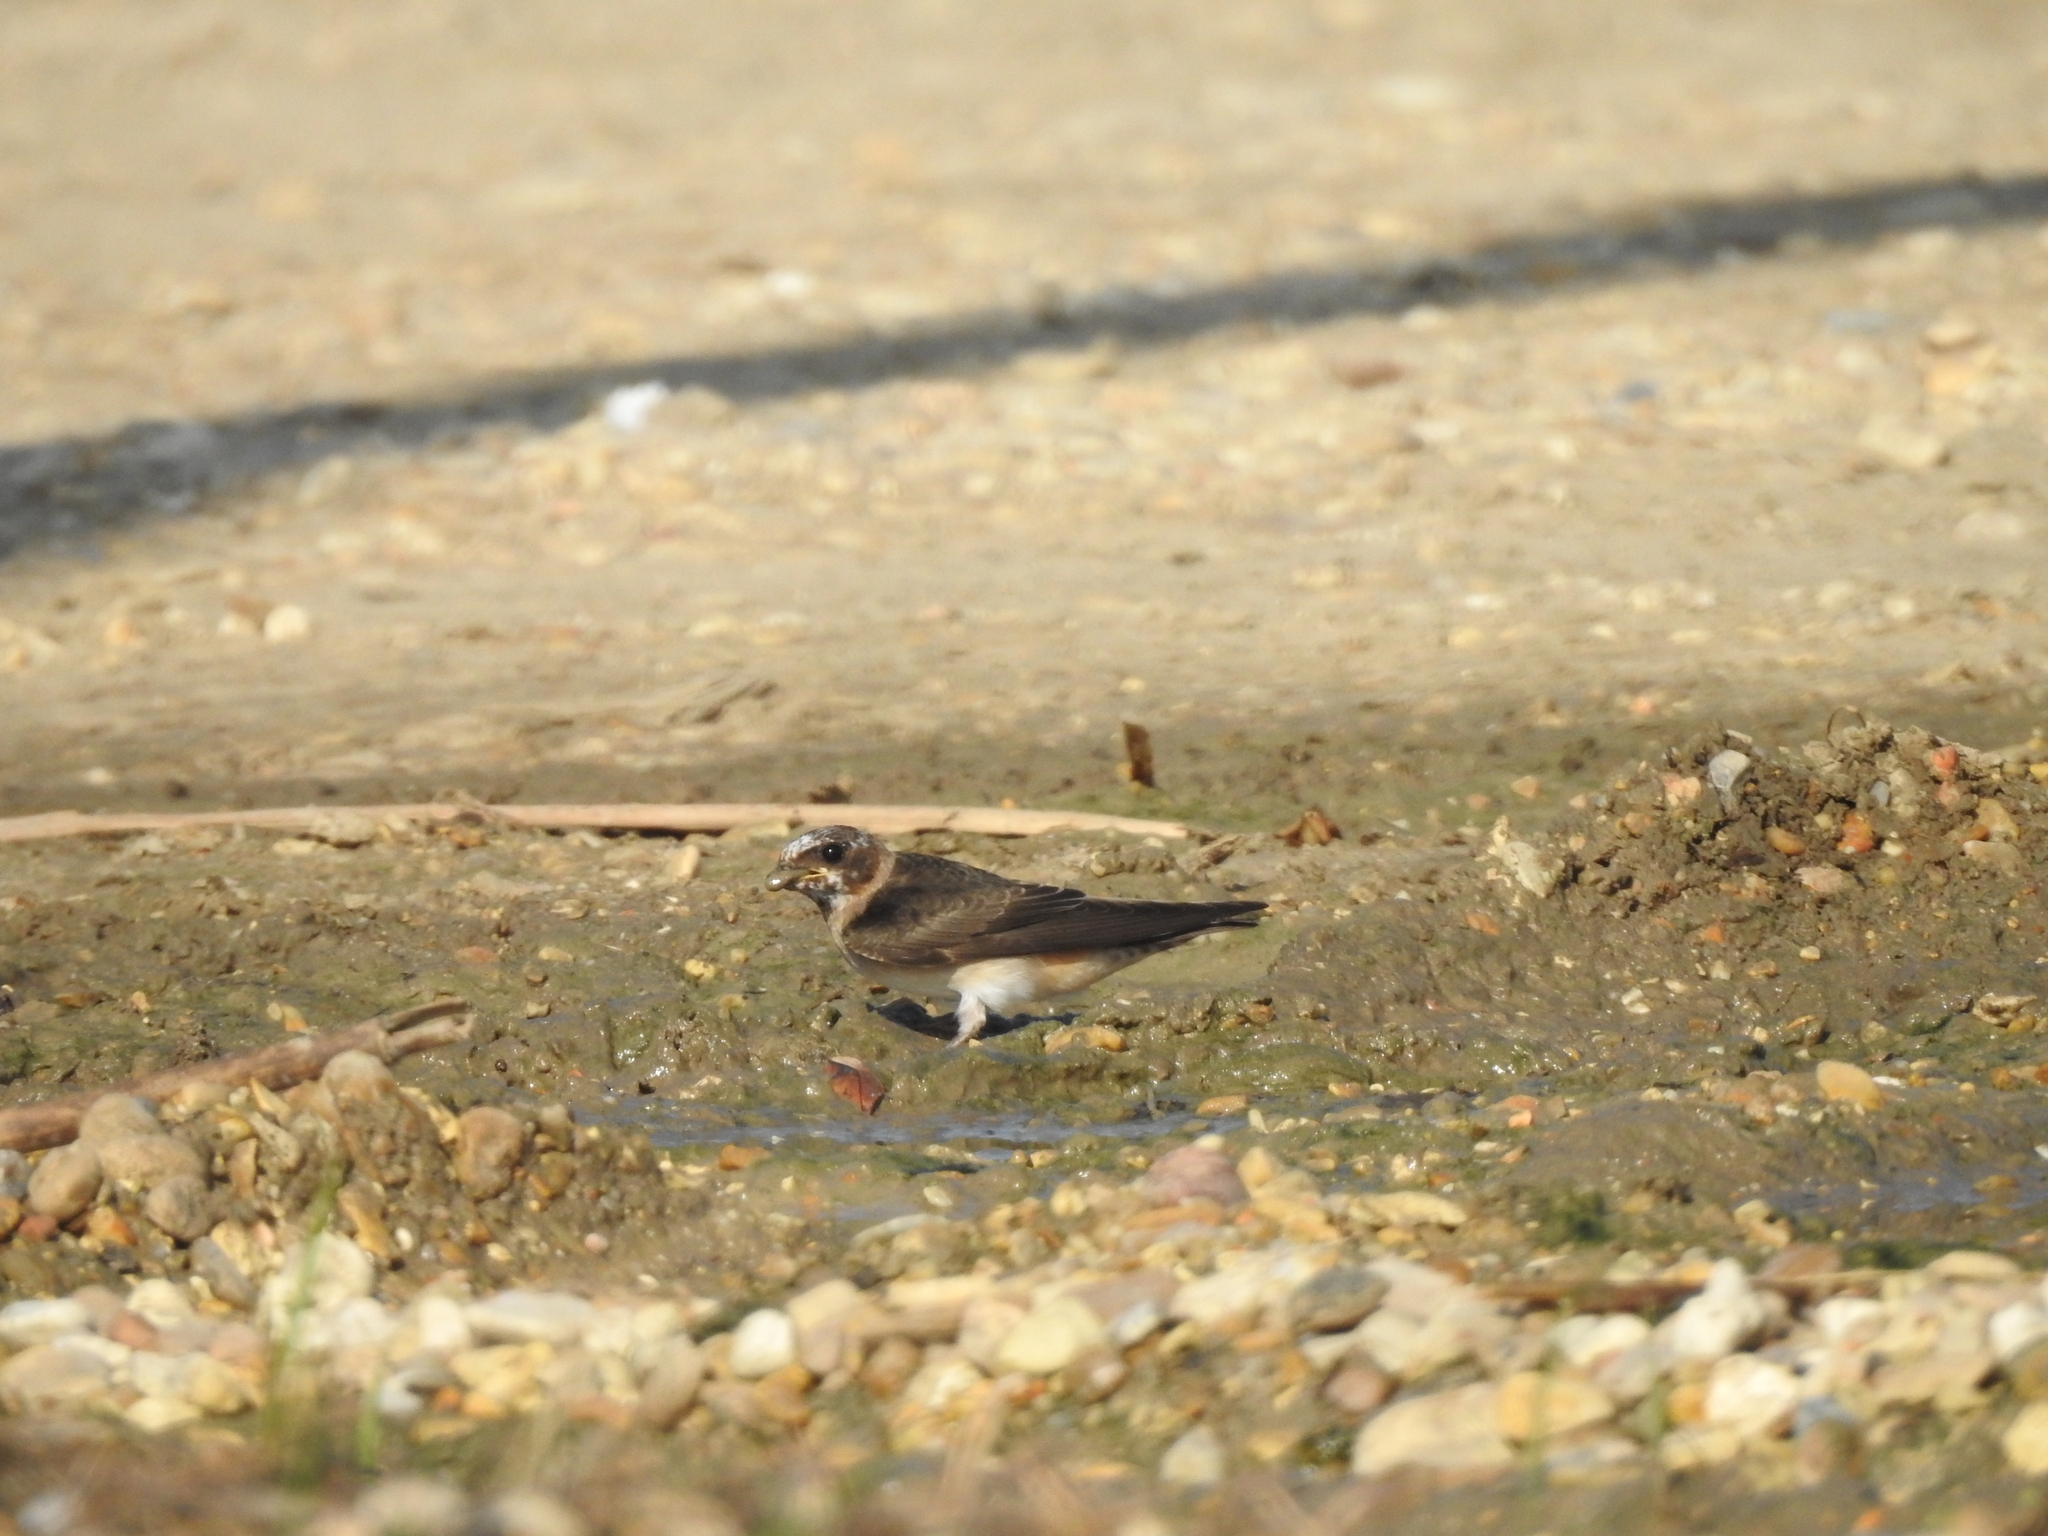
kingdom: Animalia
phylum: Chordata
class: Aves
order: Passeriformes
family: Hirundinidae
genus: Petrochelidon
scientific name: Petrochelidon pyrrhonota
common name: American cliff swallow
